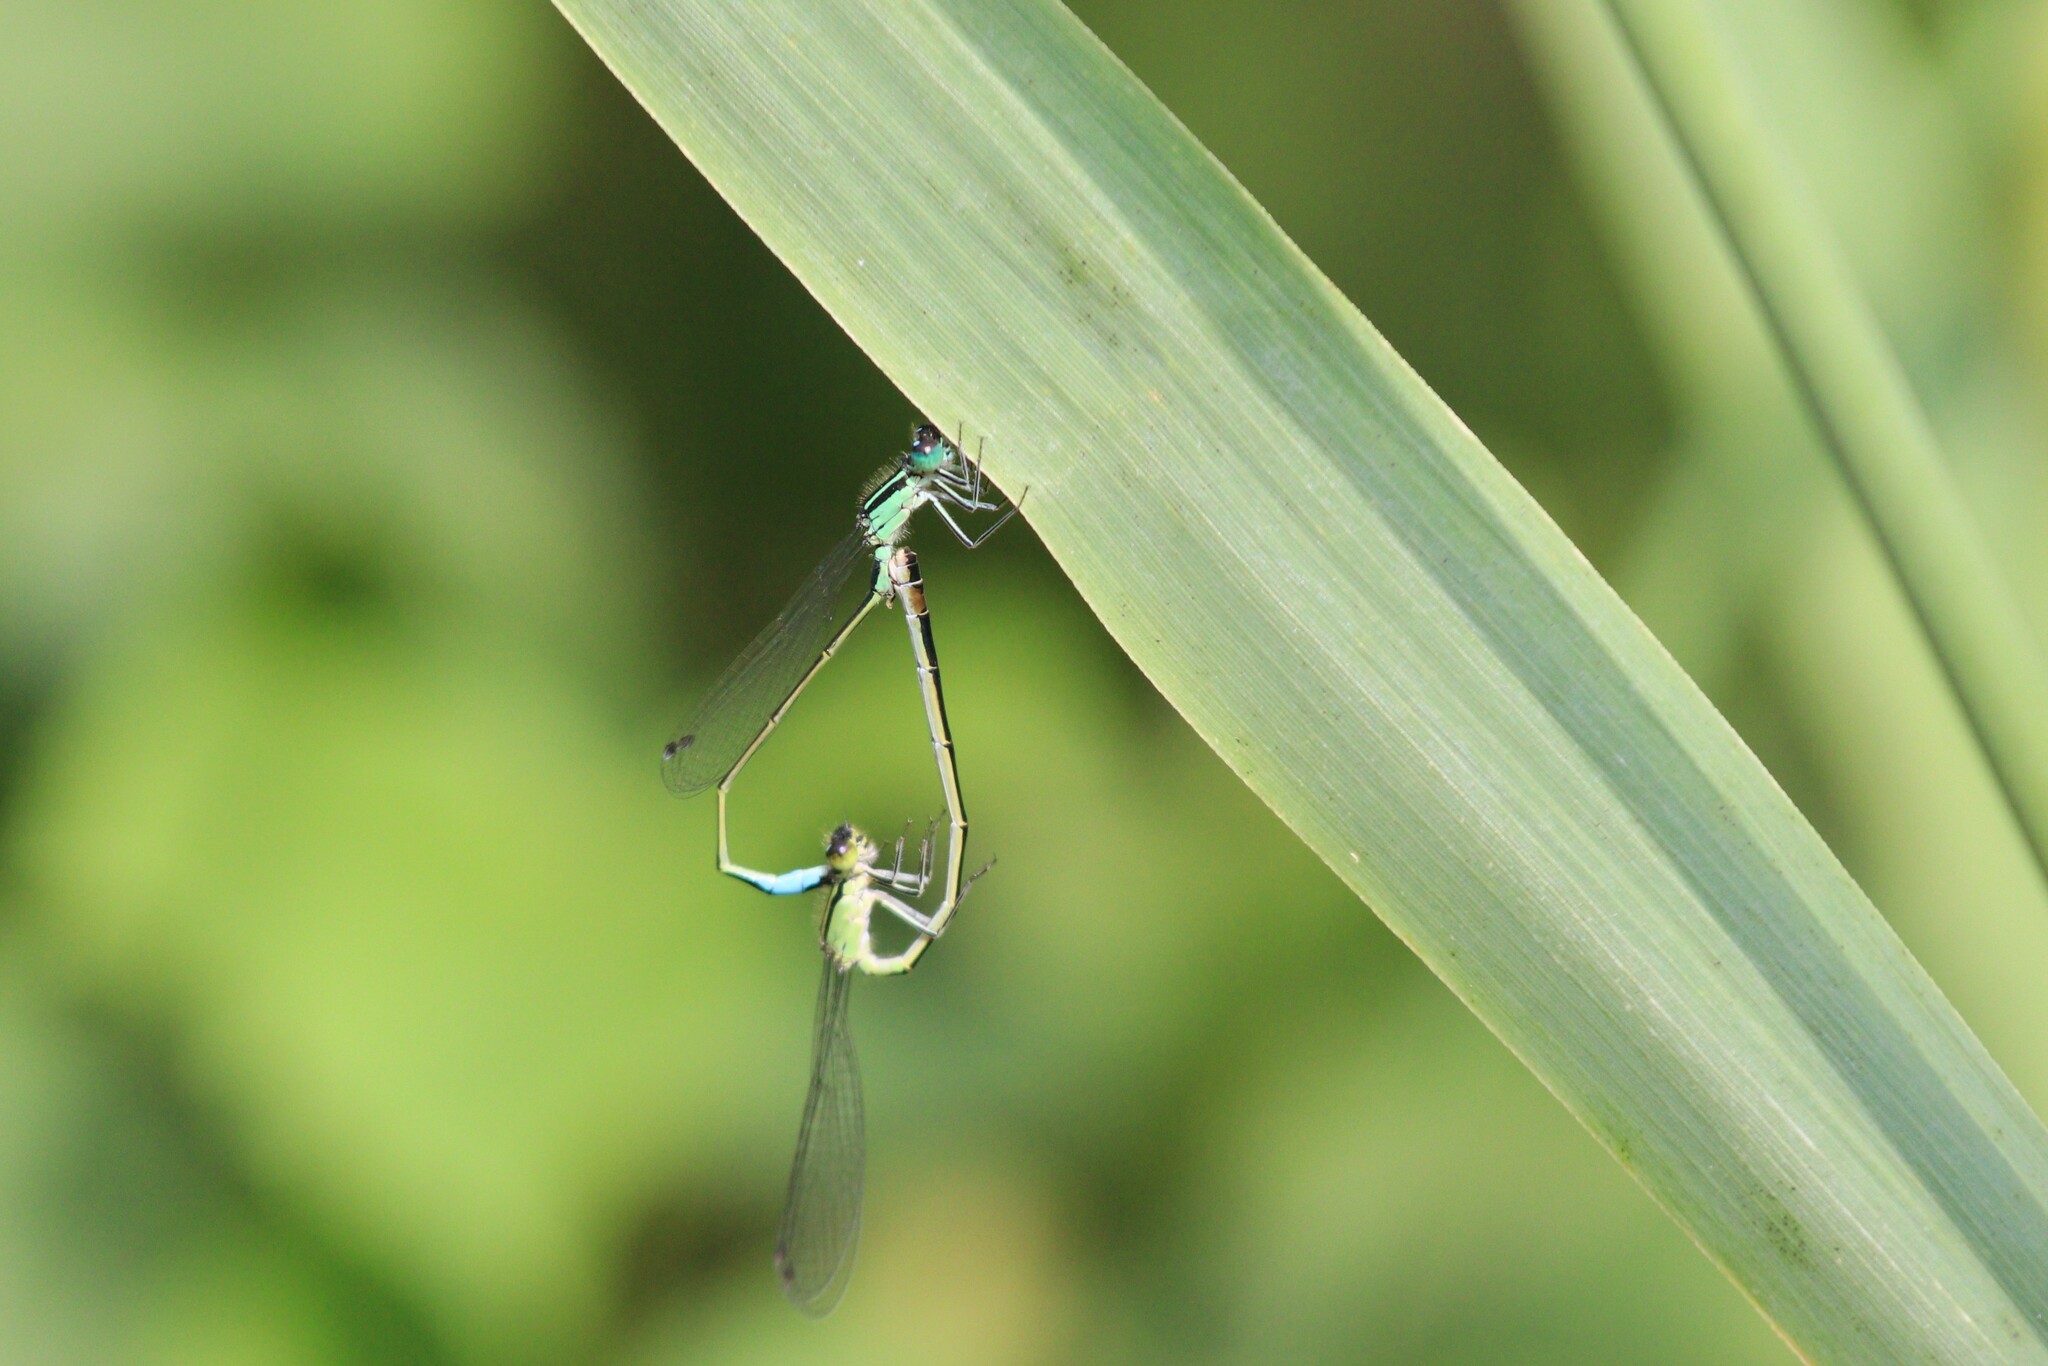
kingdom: Animalia
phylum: Arthropoda
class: Insecta
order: Odonata
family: Coenagrionidae
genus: Ischnura
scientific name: Ischnura elegans
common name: Blue-tailed damselfly
